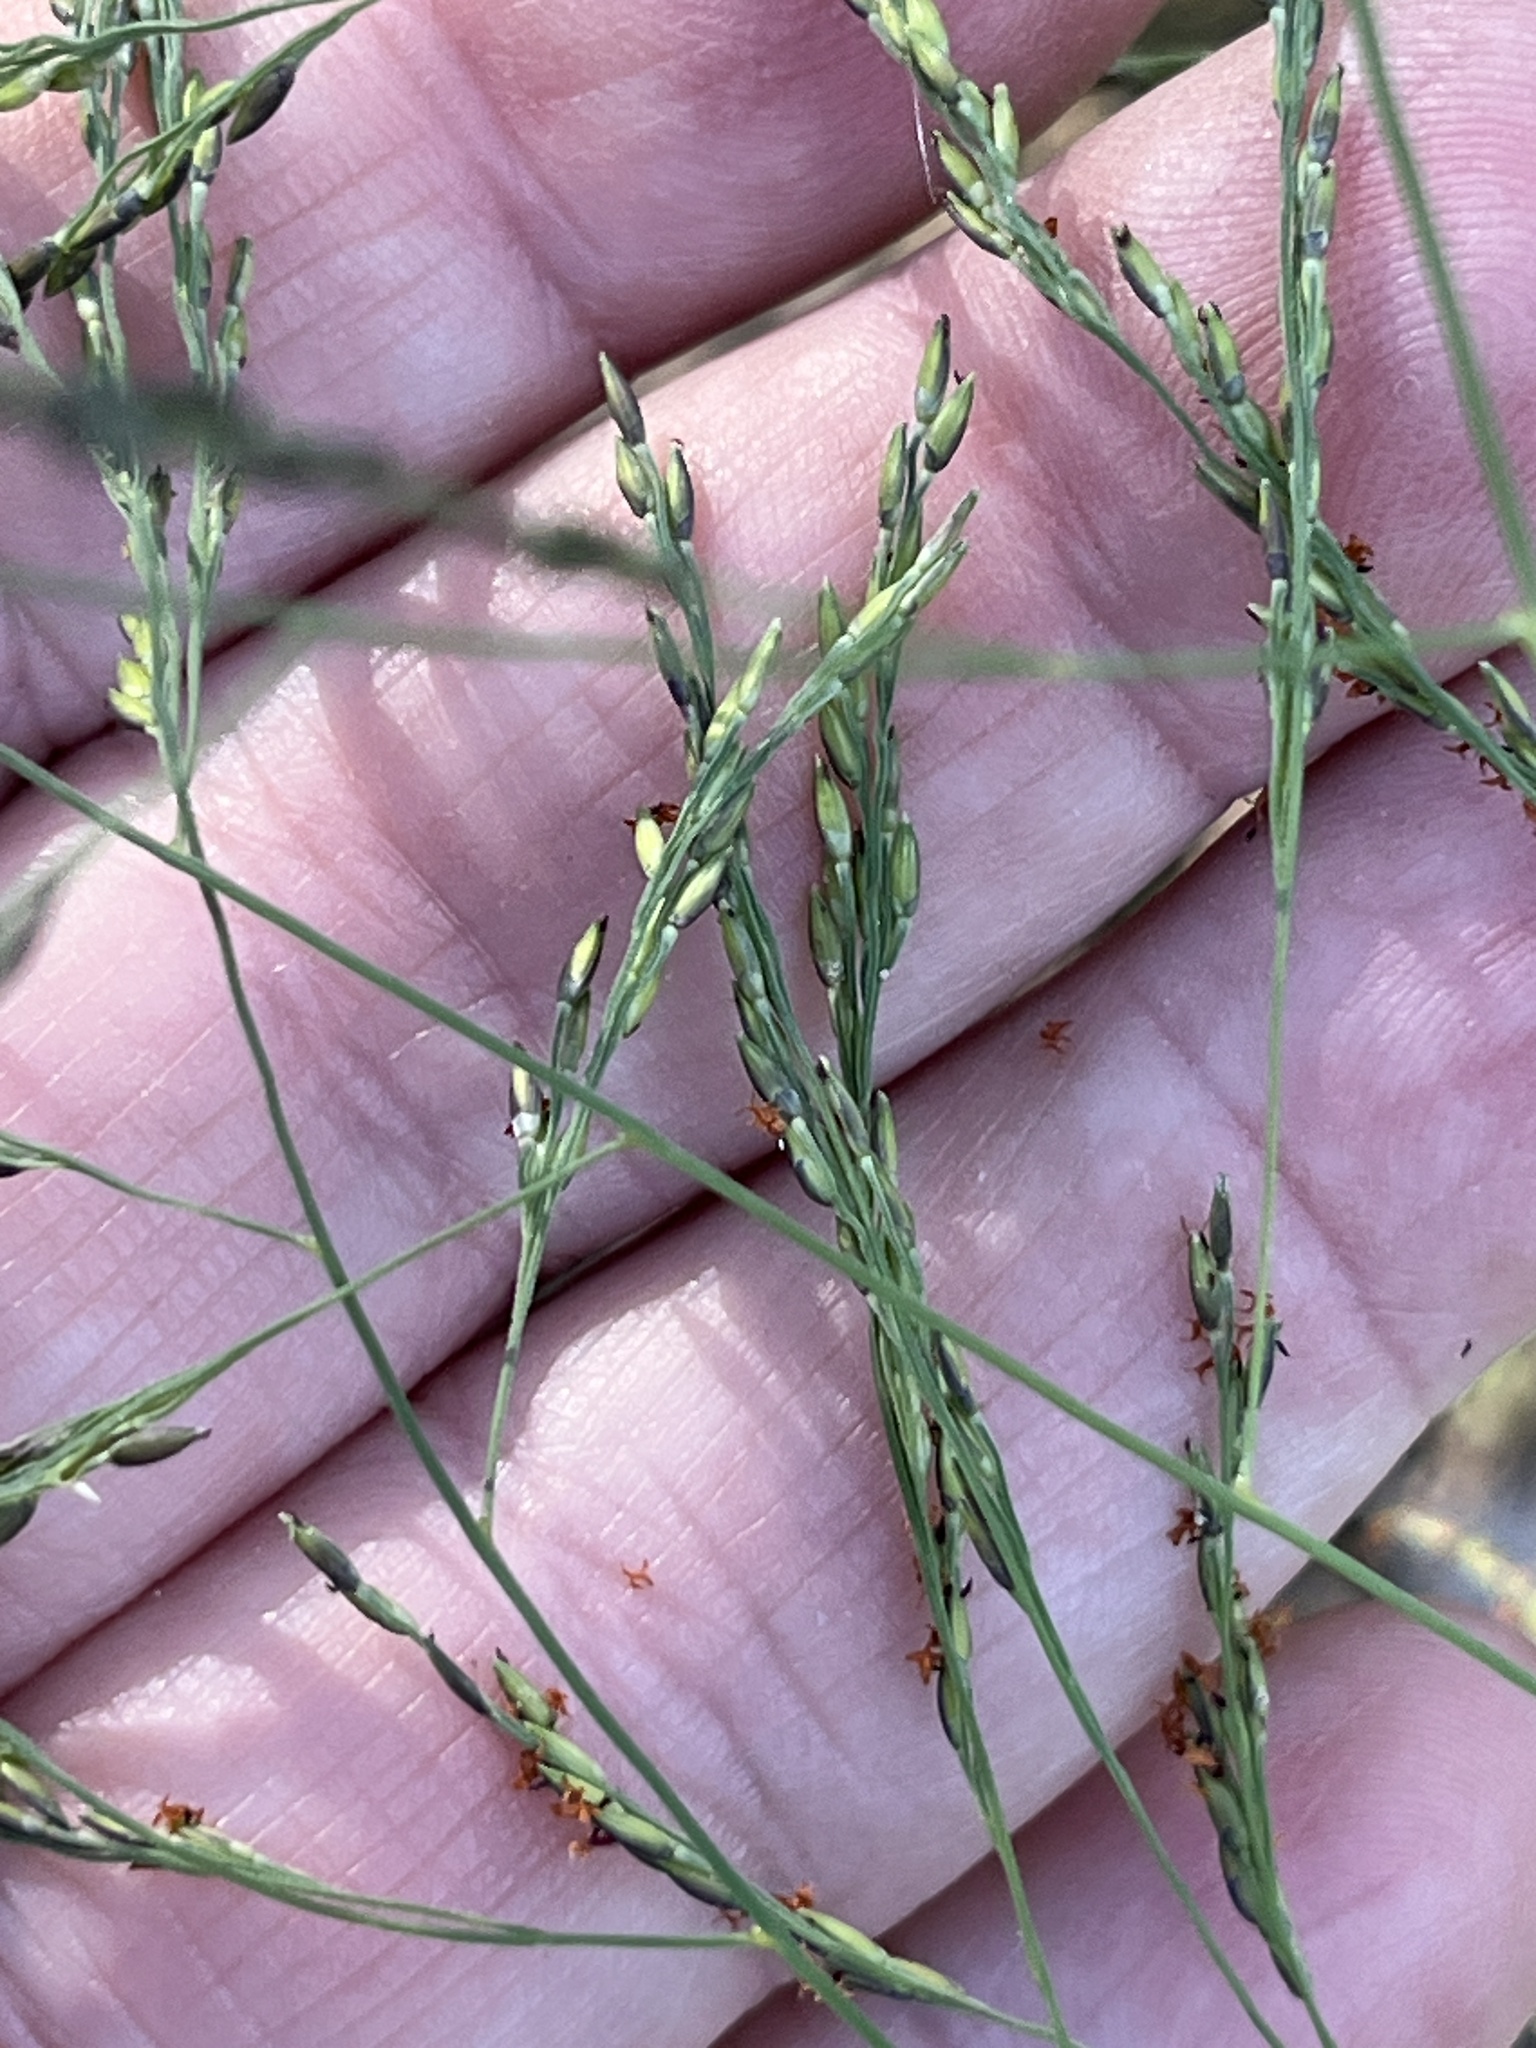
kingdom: Plantae
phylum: Tracheophyta
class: Liliopsida
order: Poales
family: Poaceae
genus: Panicum
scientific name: Panicum dichotomiflorum
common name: Autumn millet
